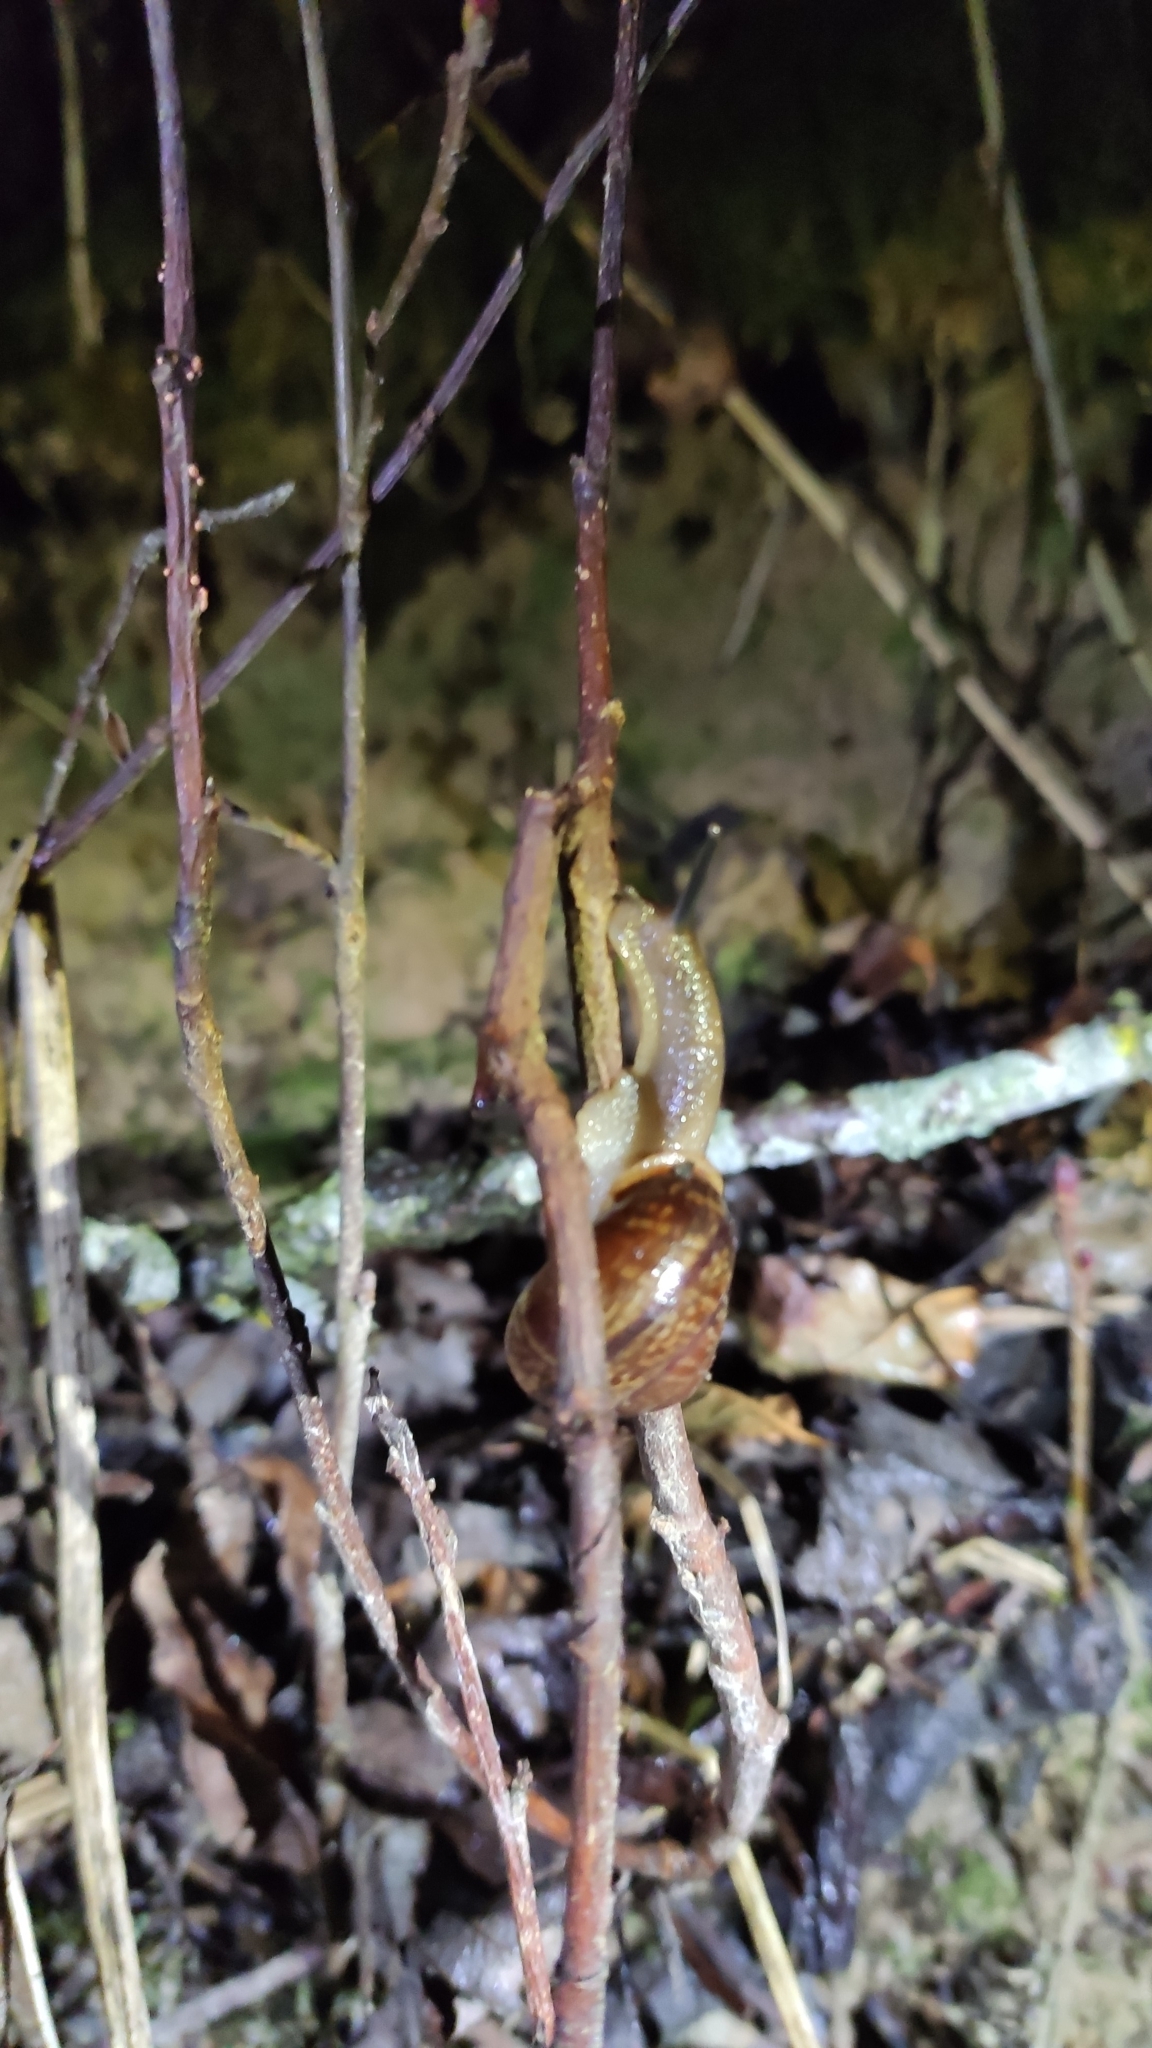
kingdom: Animalia
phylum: Mollusca
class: Gastropoda
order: Stylommatophora
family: Helicidae
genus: Arianta
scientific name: Arianta arbustorum
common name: Copse snail
